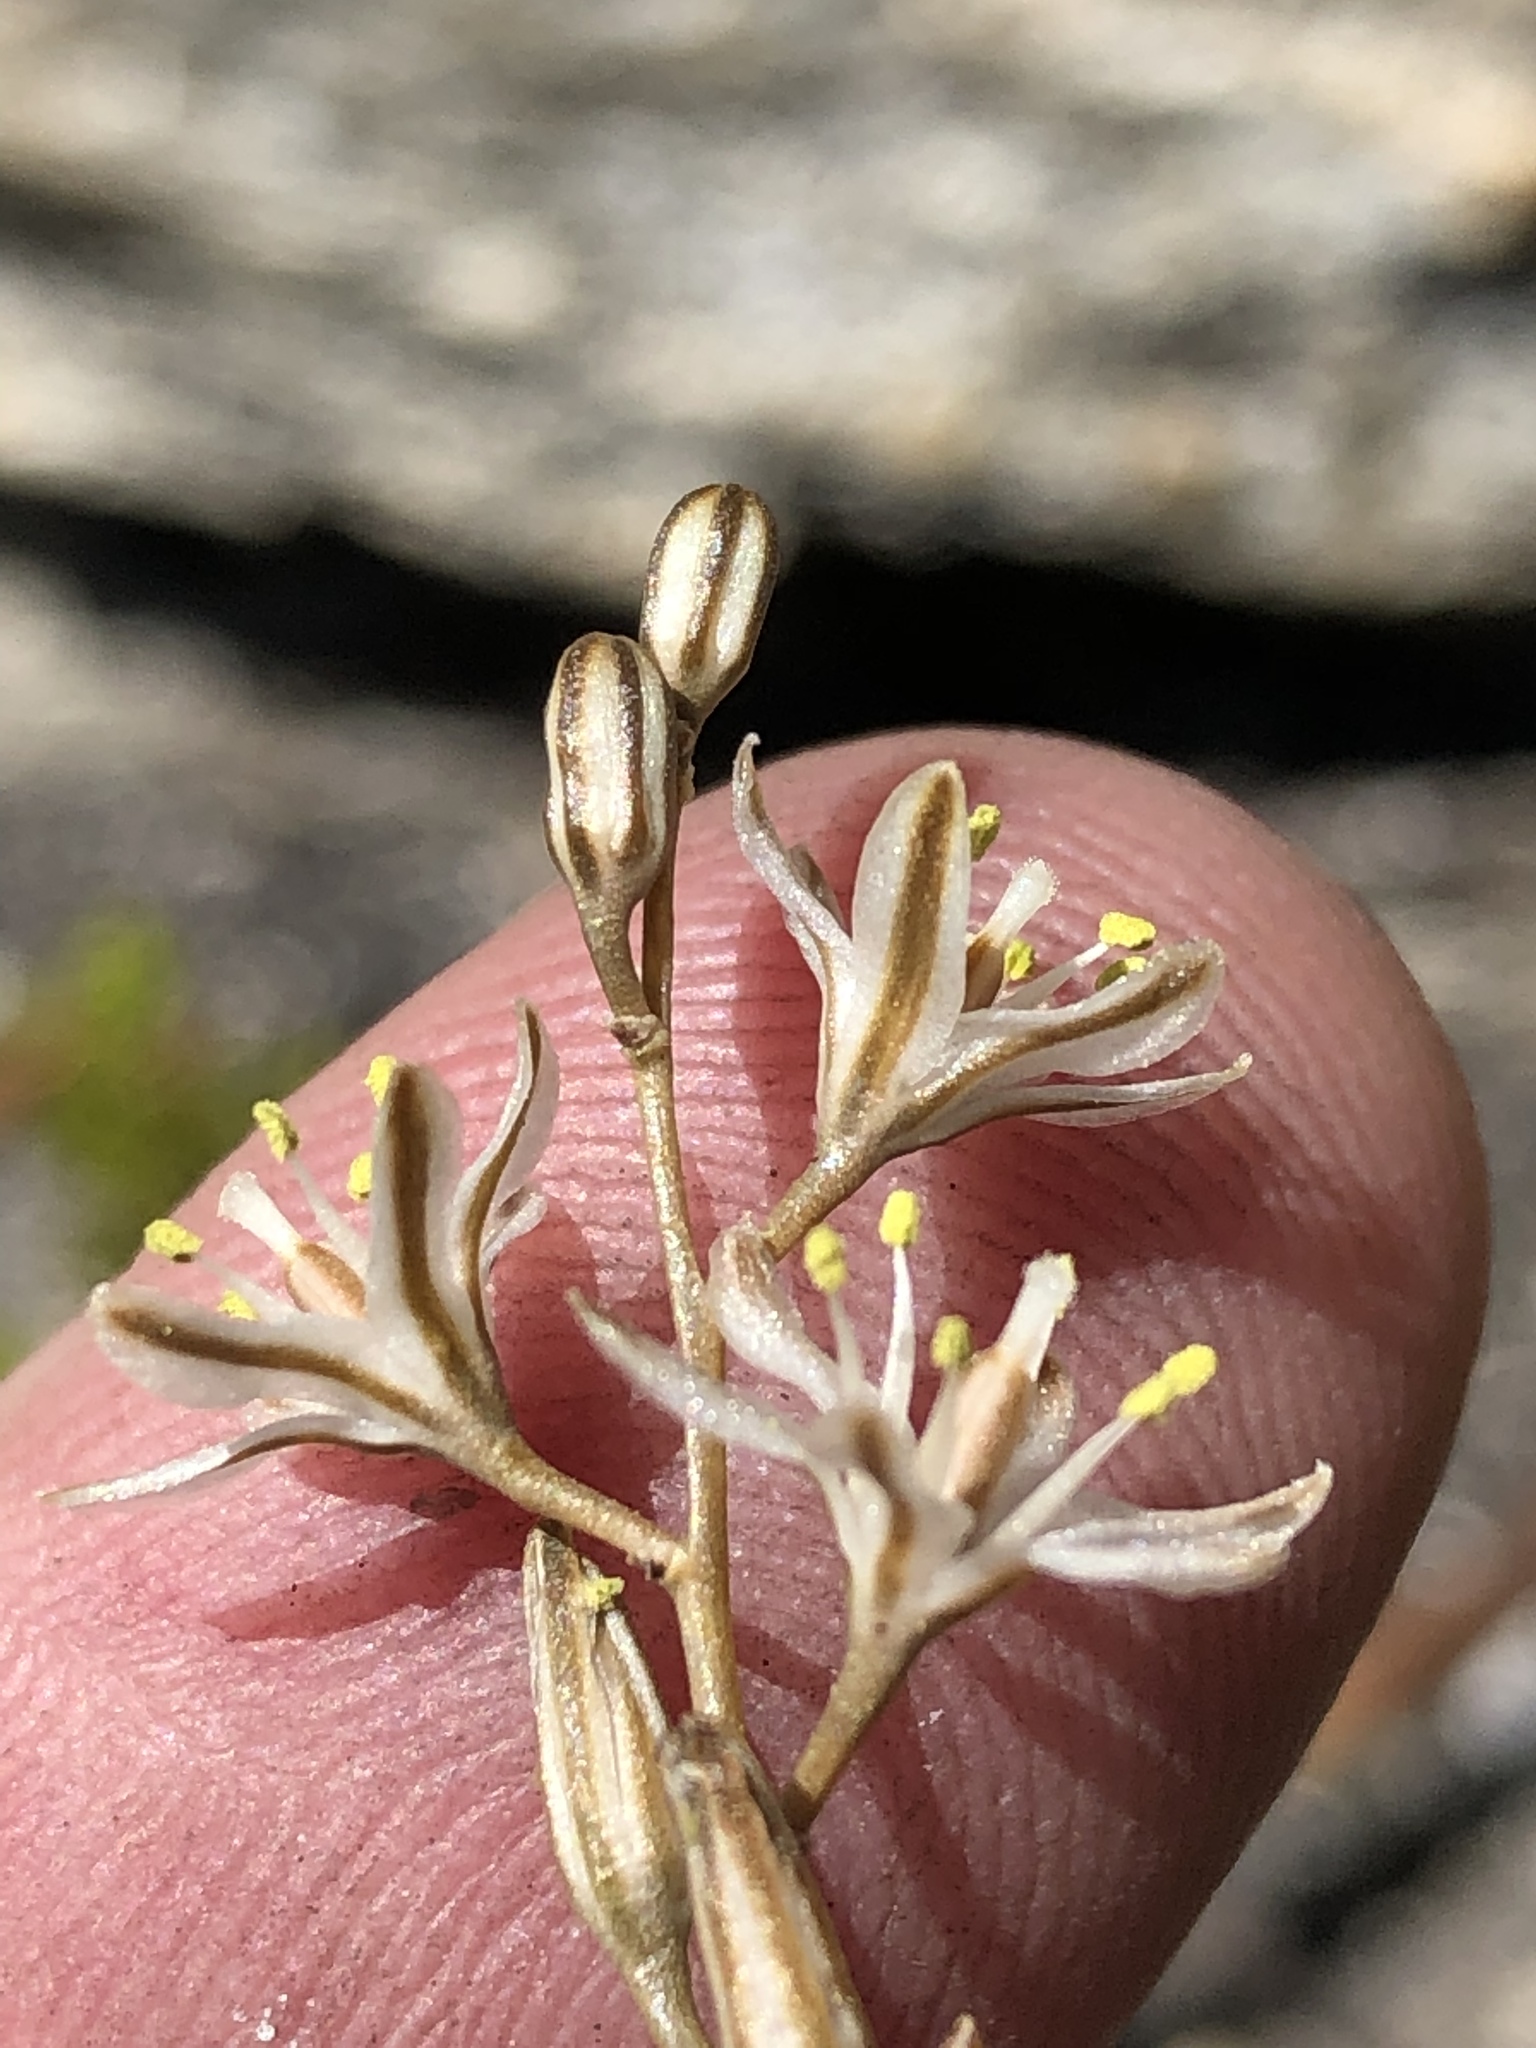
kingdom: Plantae
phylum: Tracheophyta
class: Liliopsida
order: Asparagales
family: Asparagaceae
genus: Drimia
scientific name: Drimia calcarata
